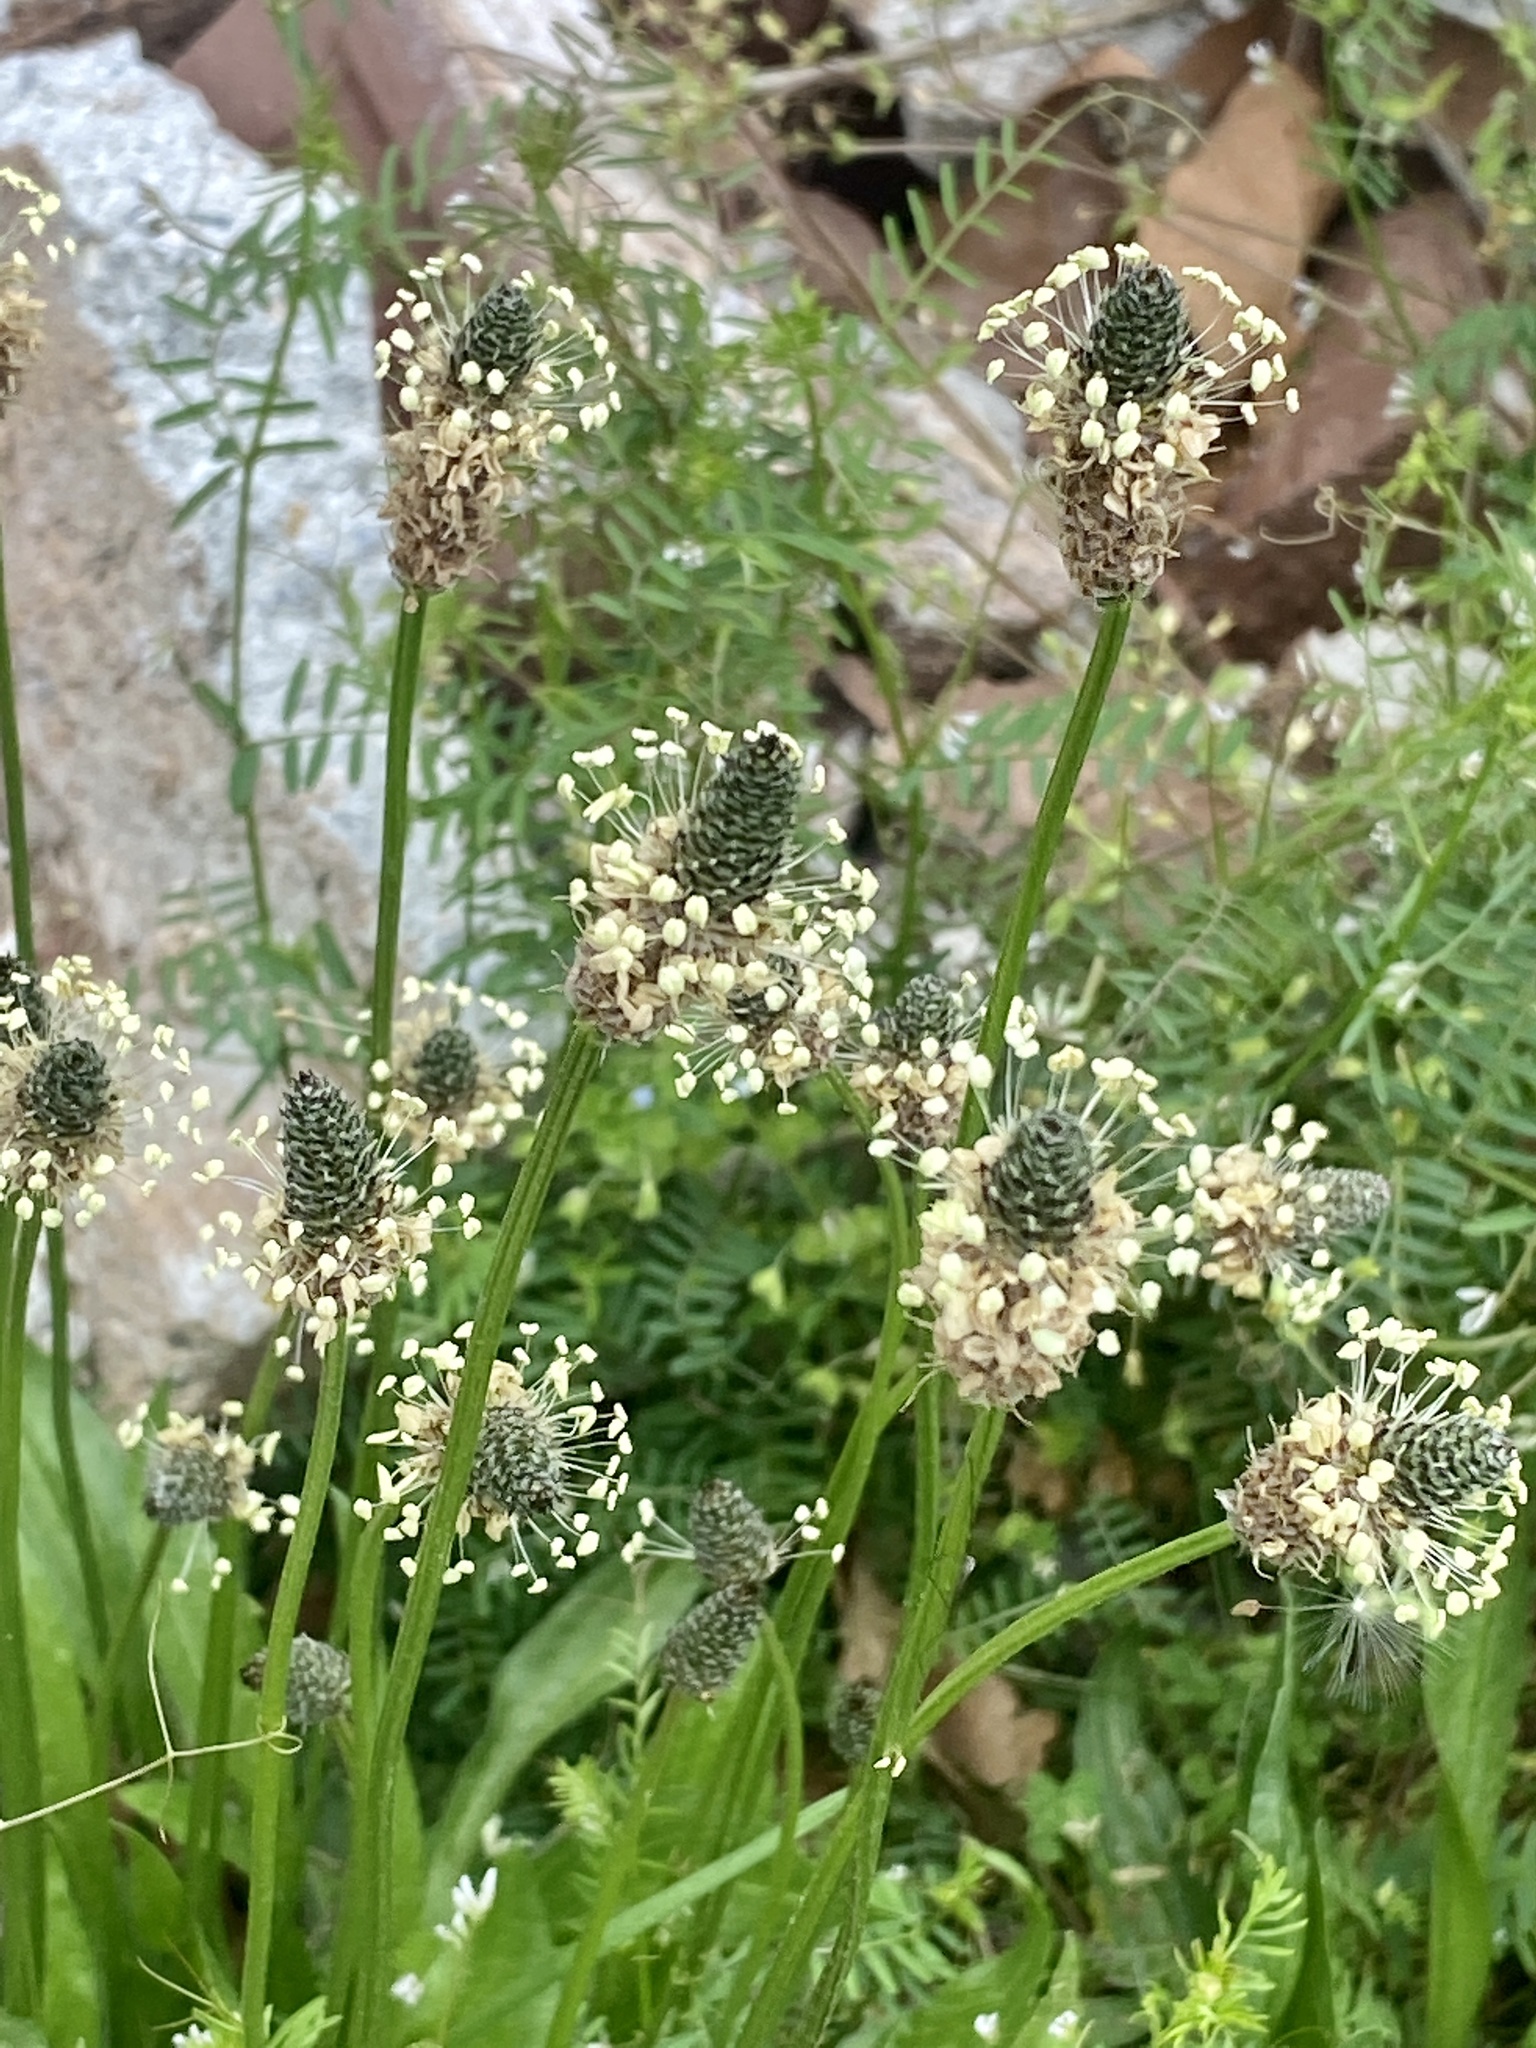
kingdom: Plantae
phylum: Tracheophyta
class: Magnoliopsida
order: Lamiales
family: Plantaginaceae
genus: Plantago
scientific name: Plantago lanceolata
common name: Ribwort plantain
